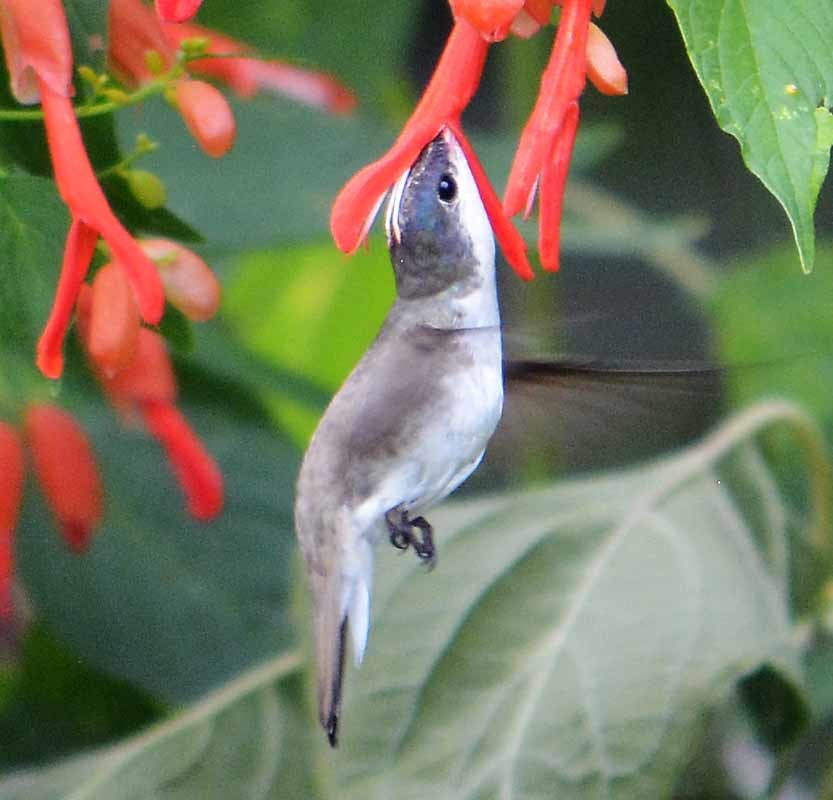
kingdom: Animalia
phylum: Chordata
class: Aves
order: Apodiformes
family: Trochilidae
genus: Leucolia
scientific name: Leucolia violiceps
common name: Violet-crowned hummingbird
